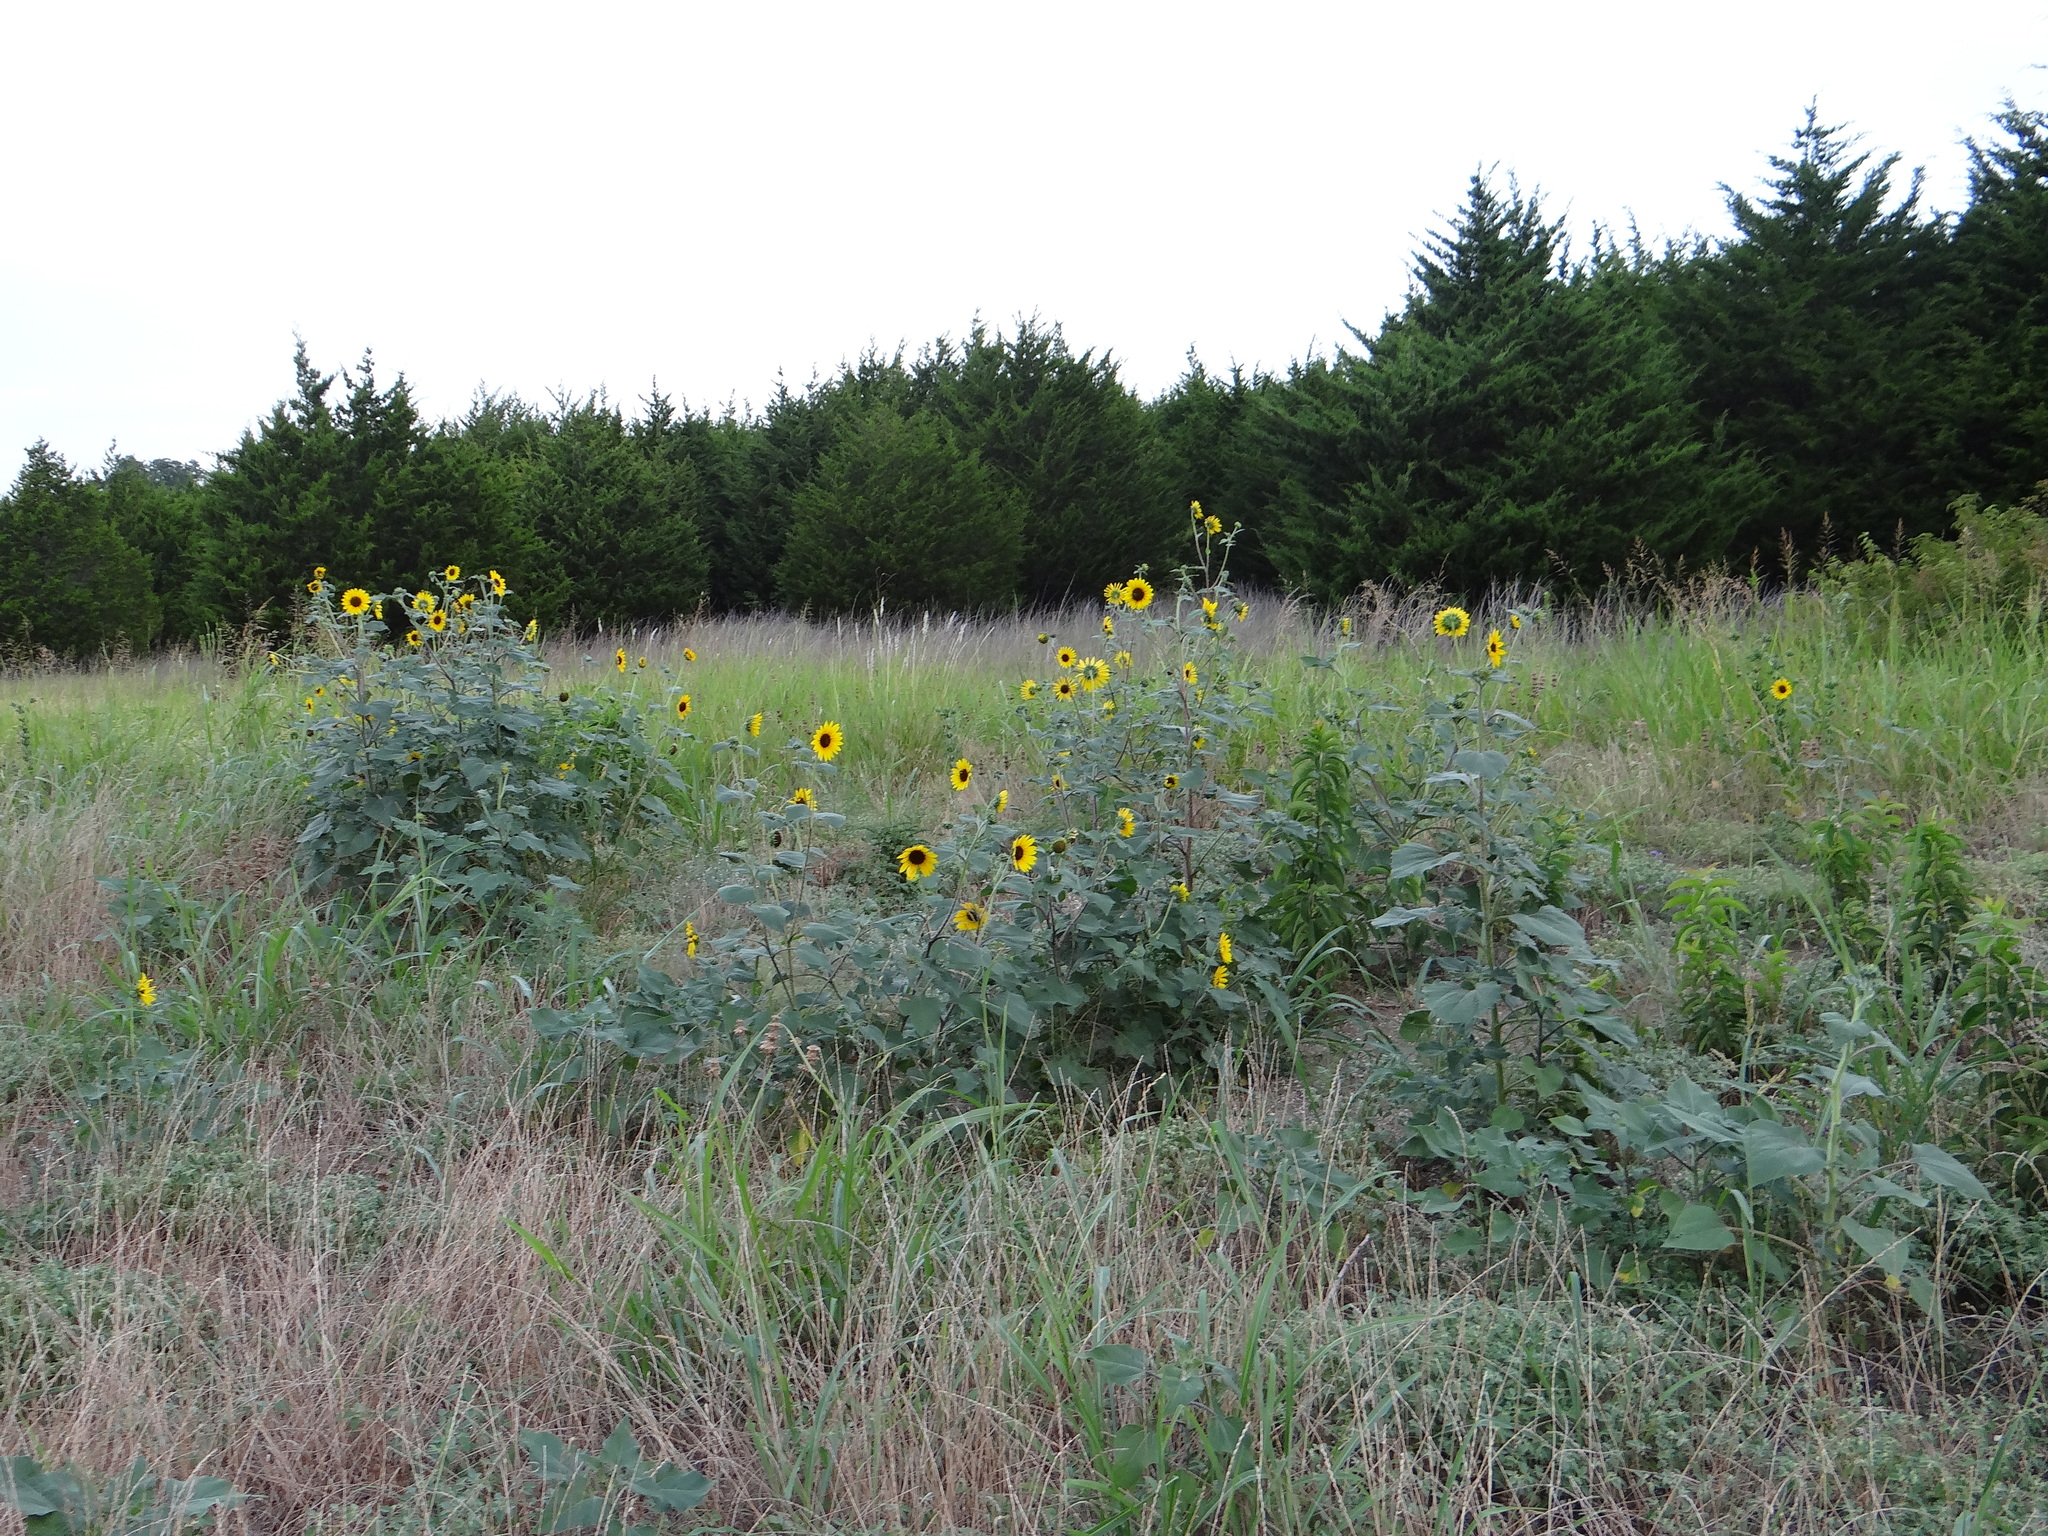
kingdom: Plantae
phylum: Tracheophyta
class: Magnoliopsida
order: Asterales
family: Asteraceae
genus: Helianthus
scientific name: Helianthus annuus
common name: Sunflower
